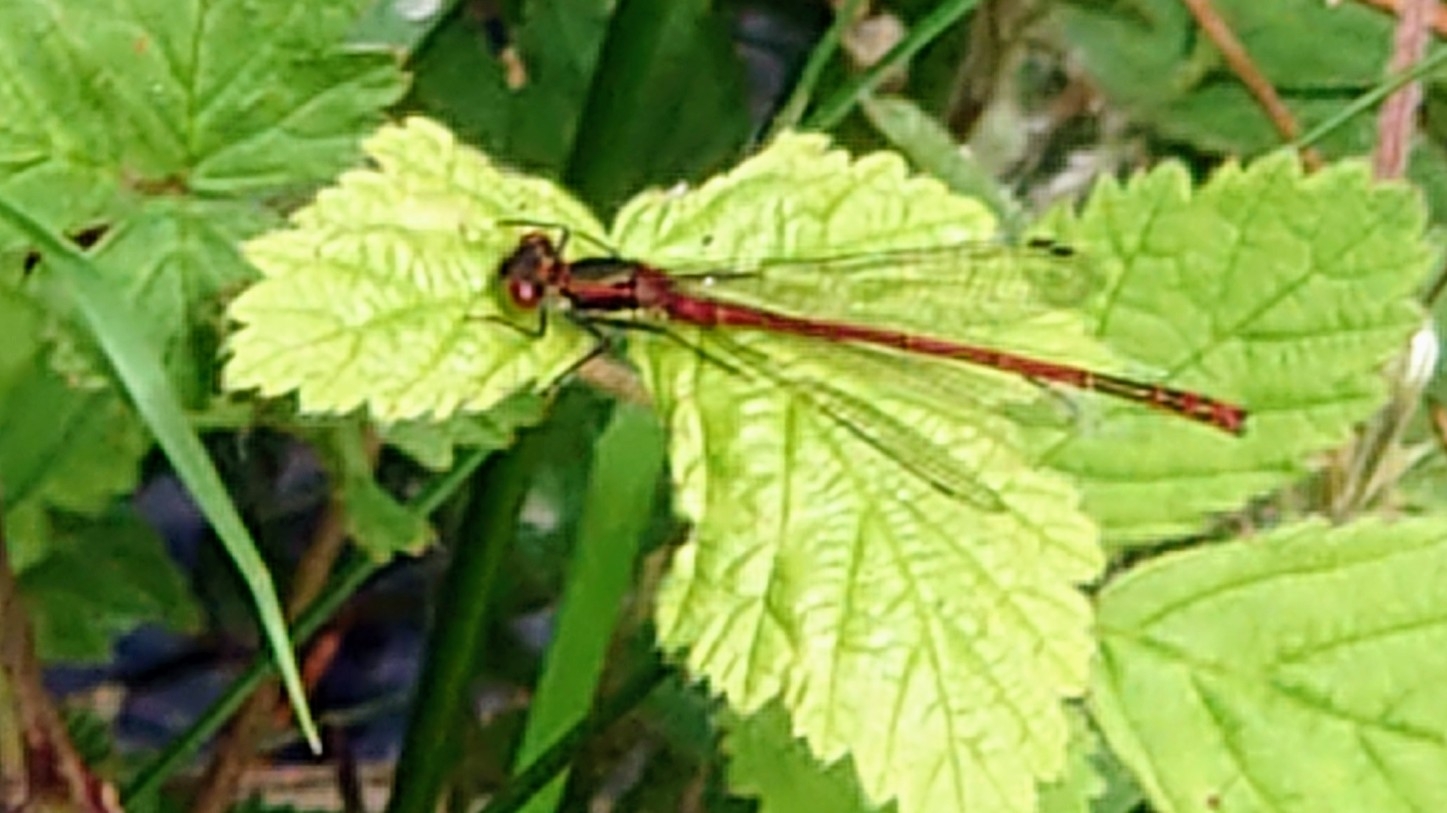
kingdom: Animalia
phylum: Arthropoda
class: Insecta
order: Odonata
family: Coenagrionidae
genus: Pyrrhosoma
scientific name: Pyrrhosoma nymphula
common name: Large red damsel
